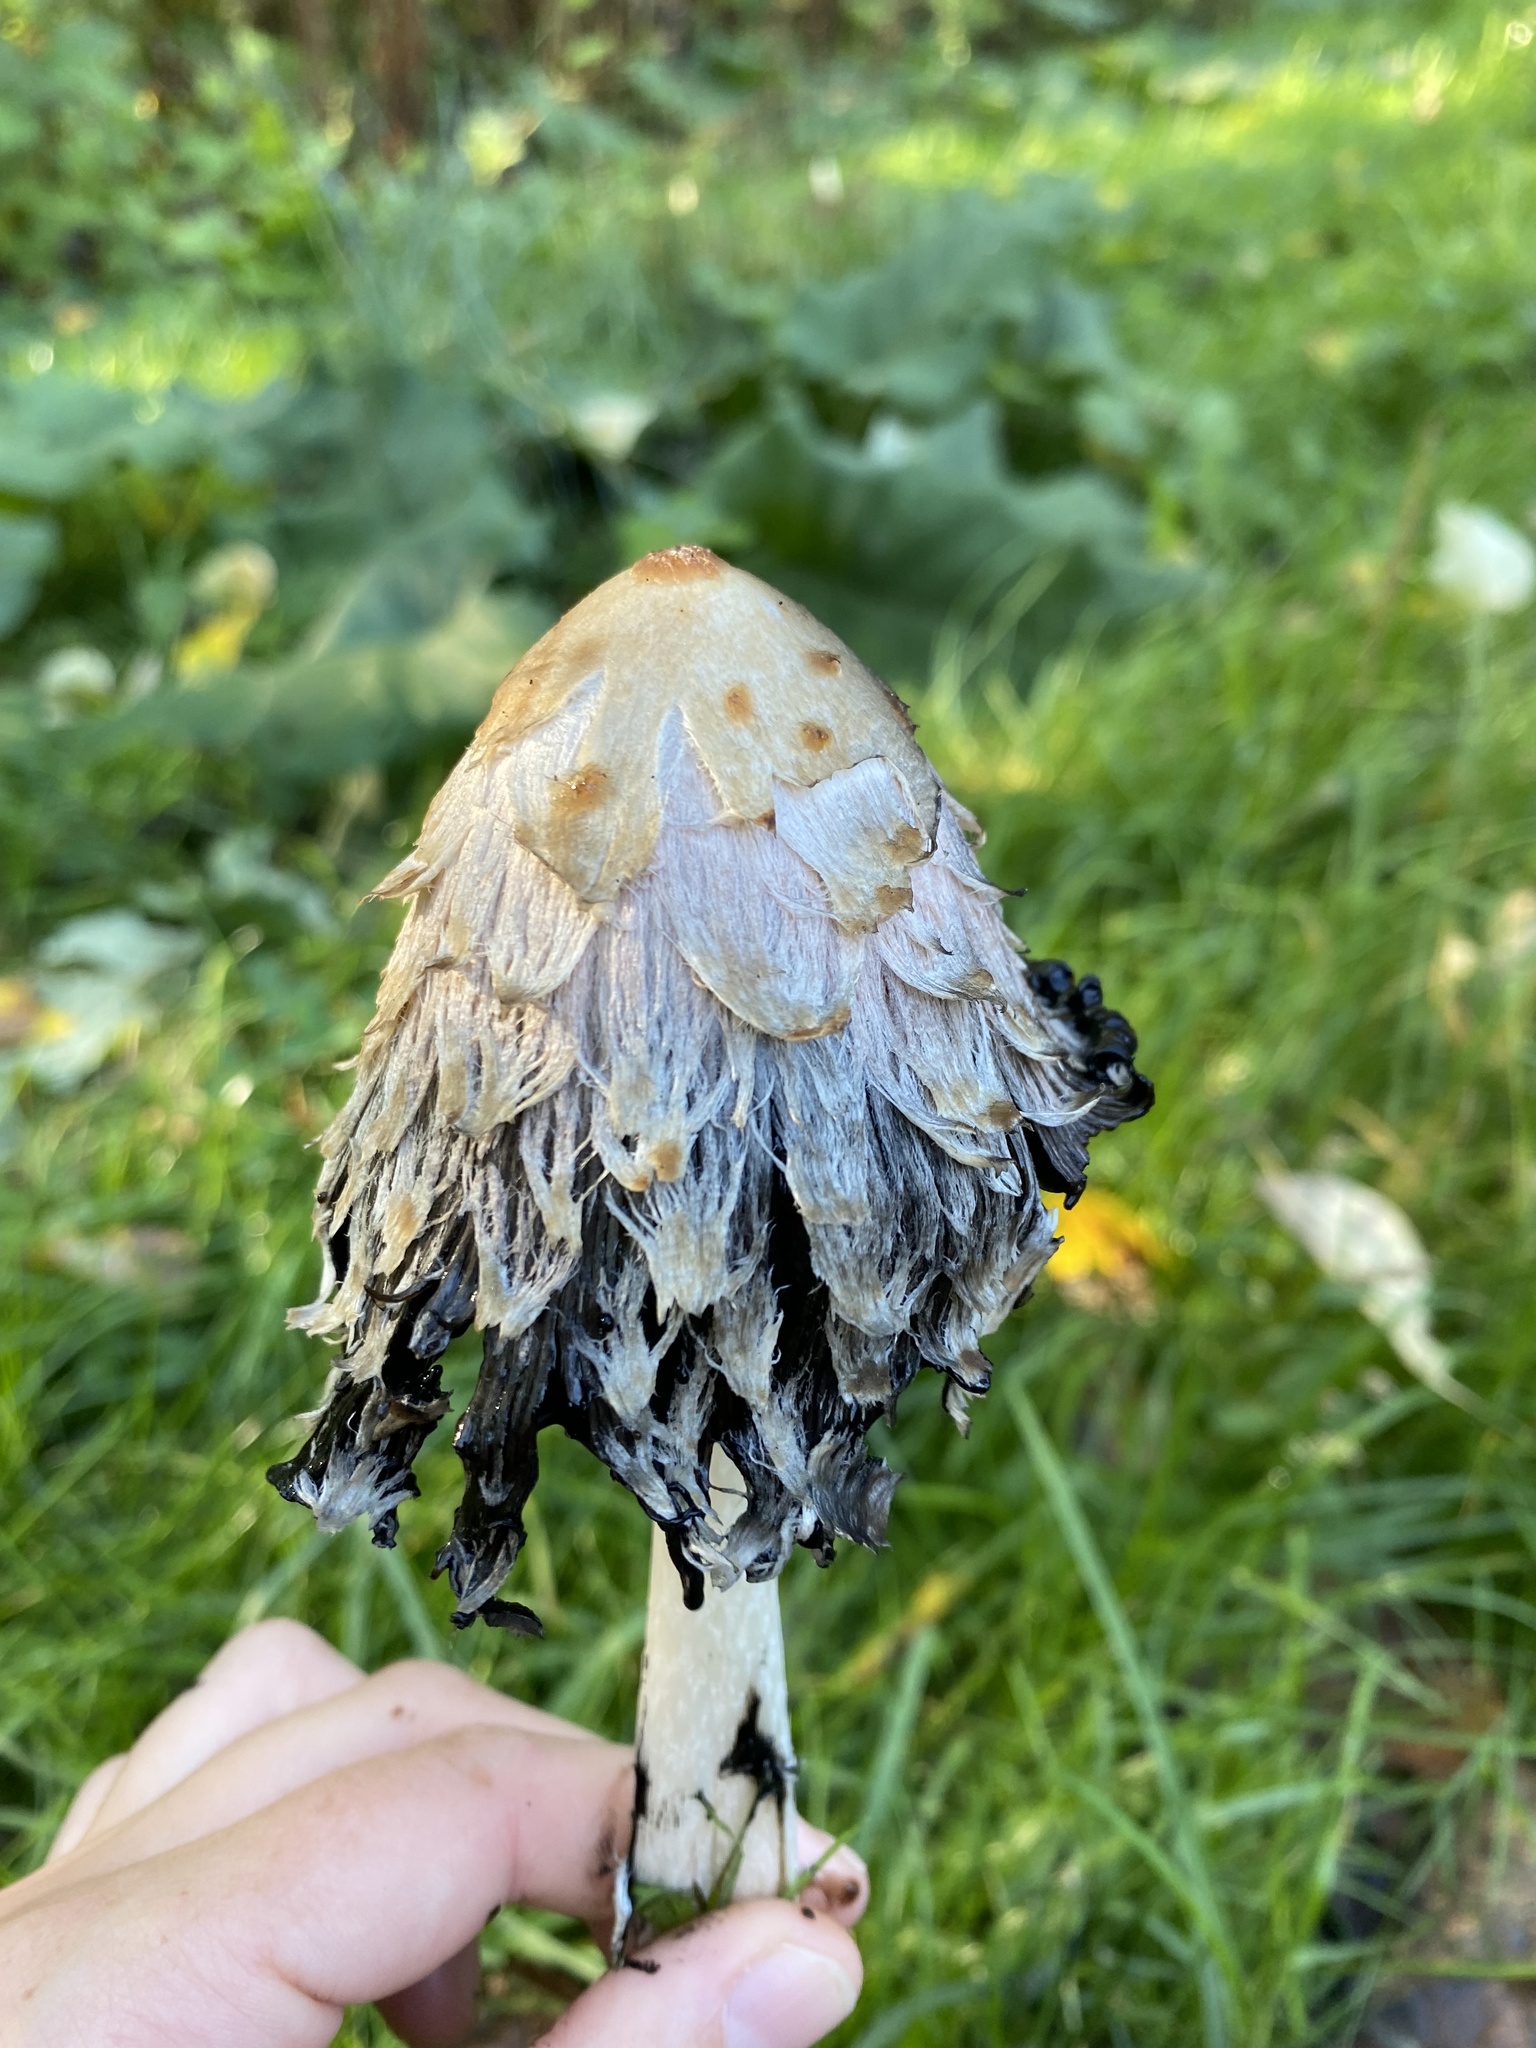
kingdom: Fungi
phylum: Basidiomycota
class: Agaricomycetes
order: Agaricales
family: Agaricaceae
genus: Coprinus
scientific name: Coprinus comatus
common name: Lawyer's wig
